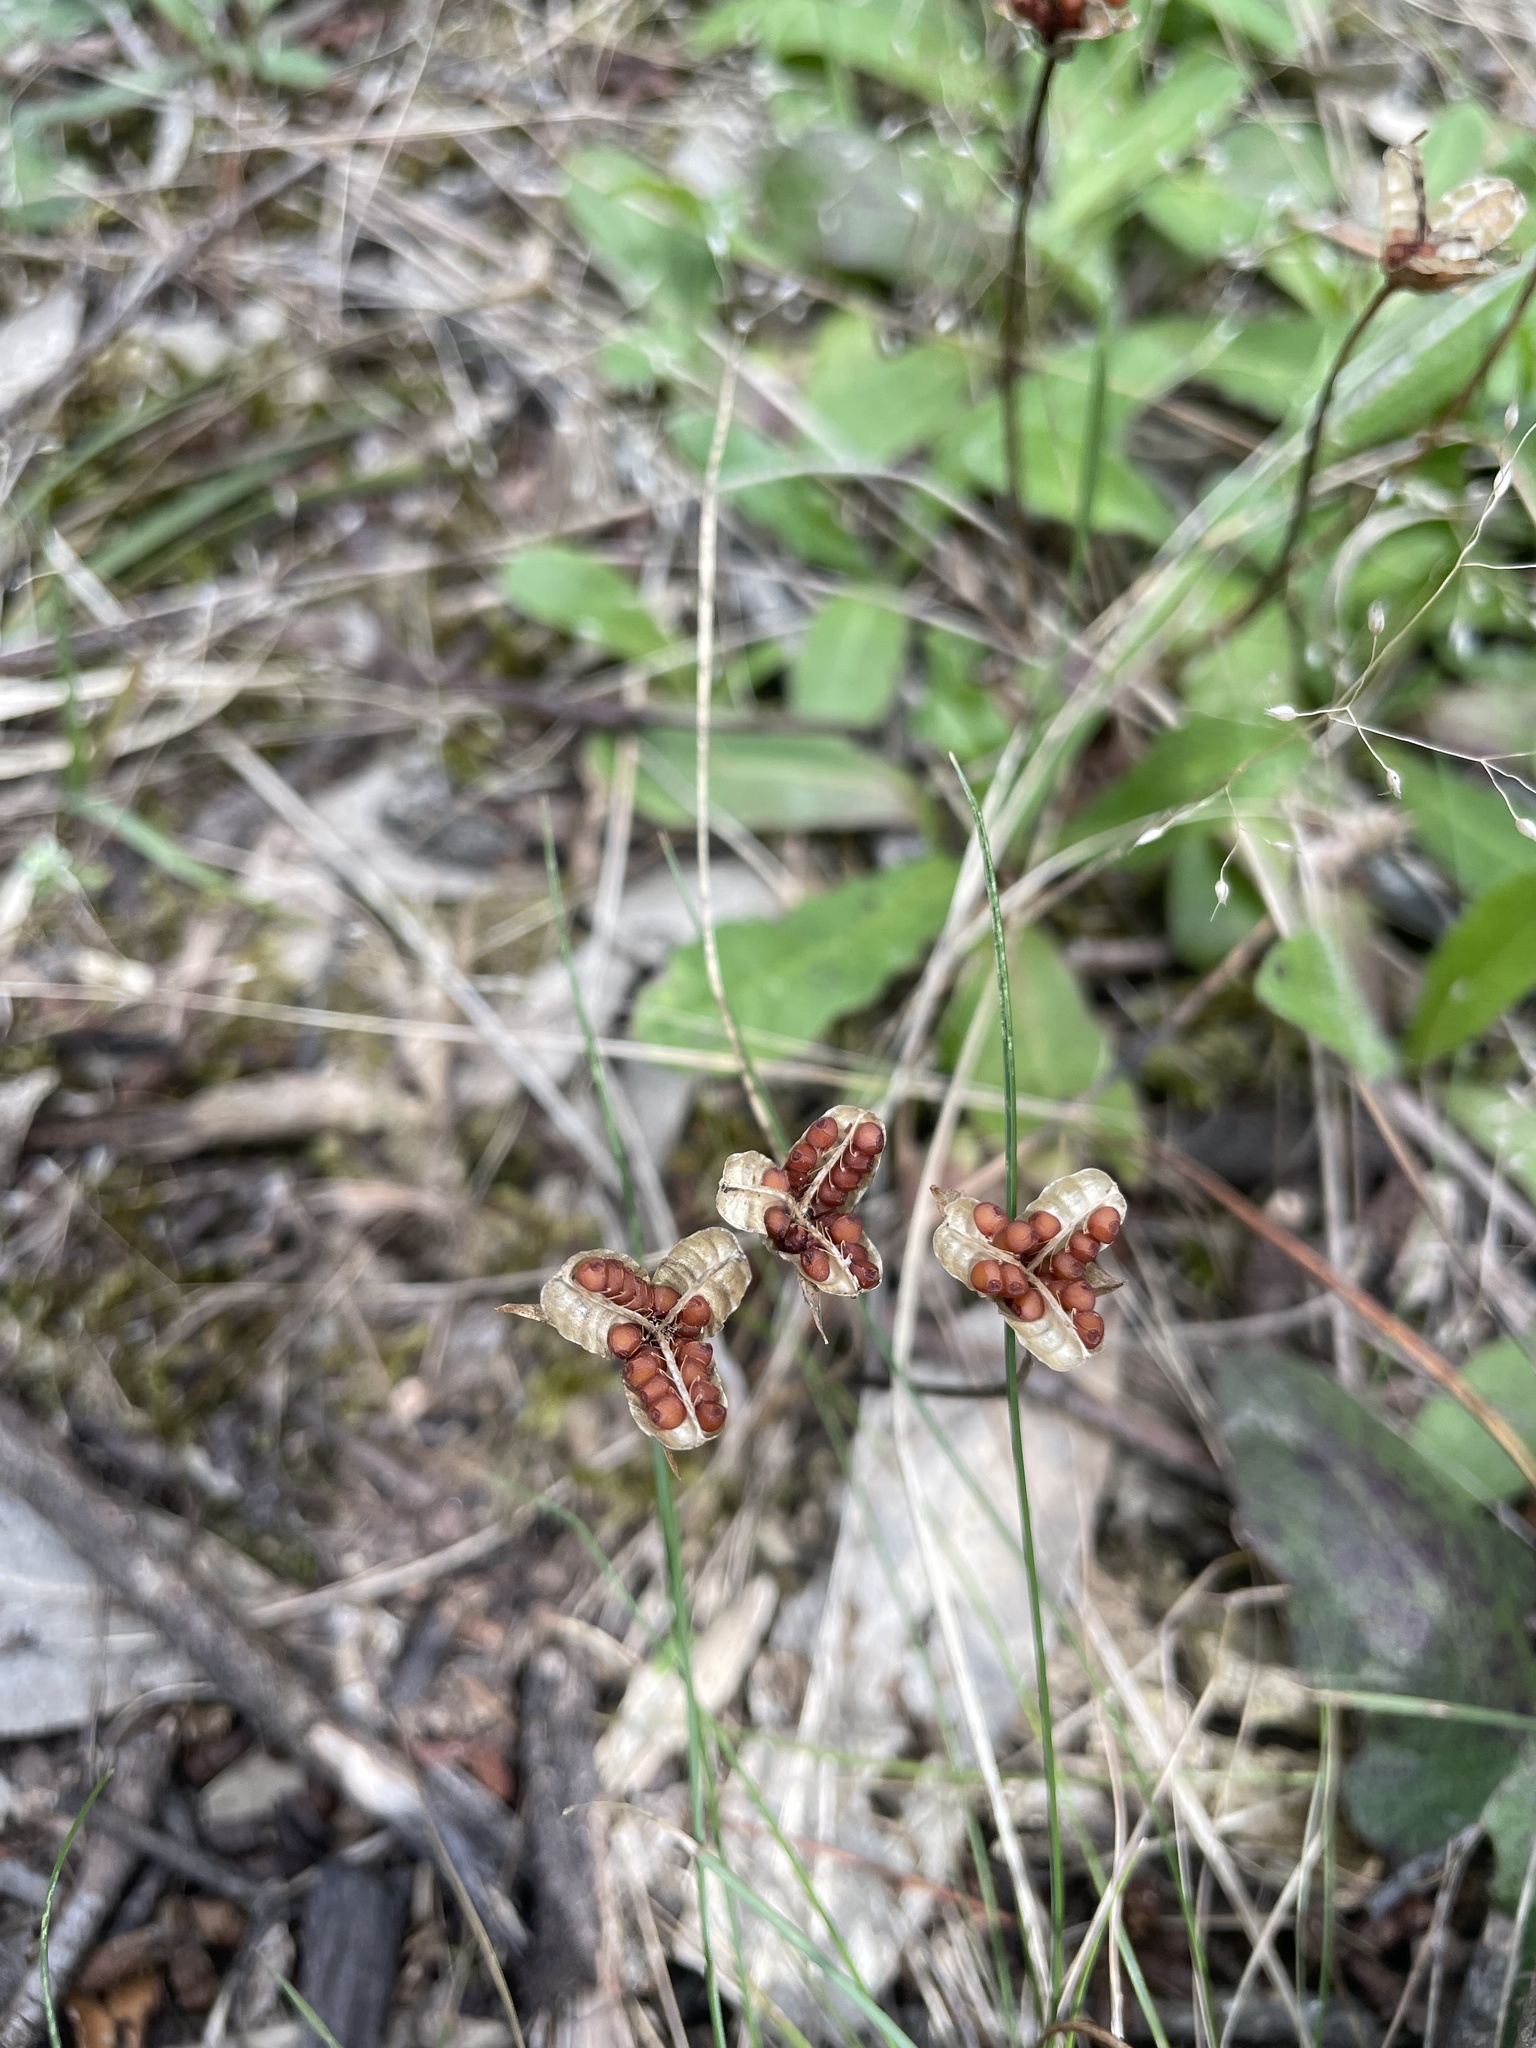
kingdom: Plantae
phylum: Tracheophyta
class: Liliopsida
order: Asparagales
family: Iridaceae
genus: Romulea
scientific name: Romulea rosea
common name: Oniongrass
